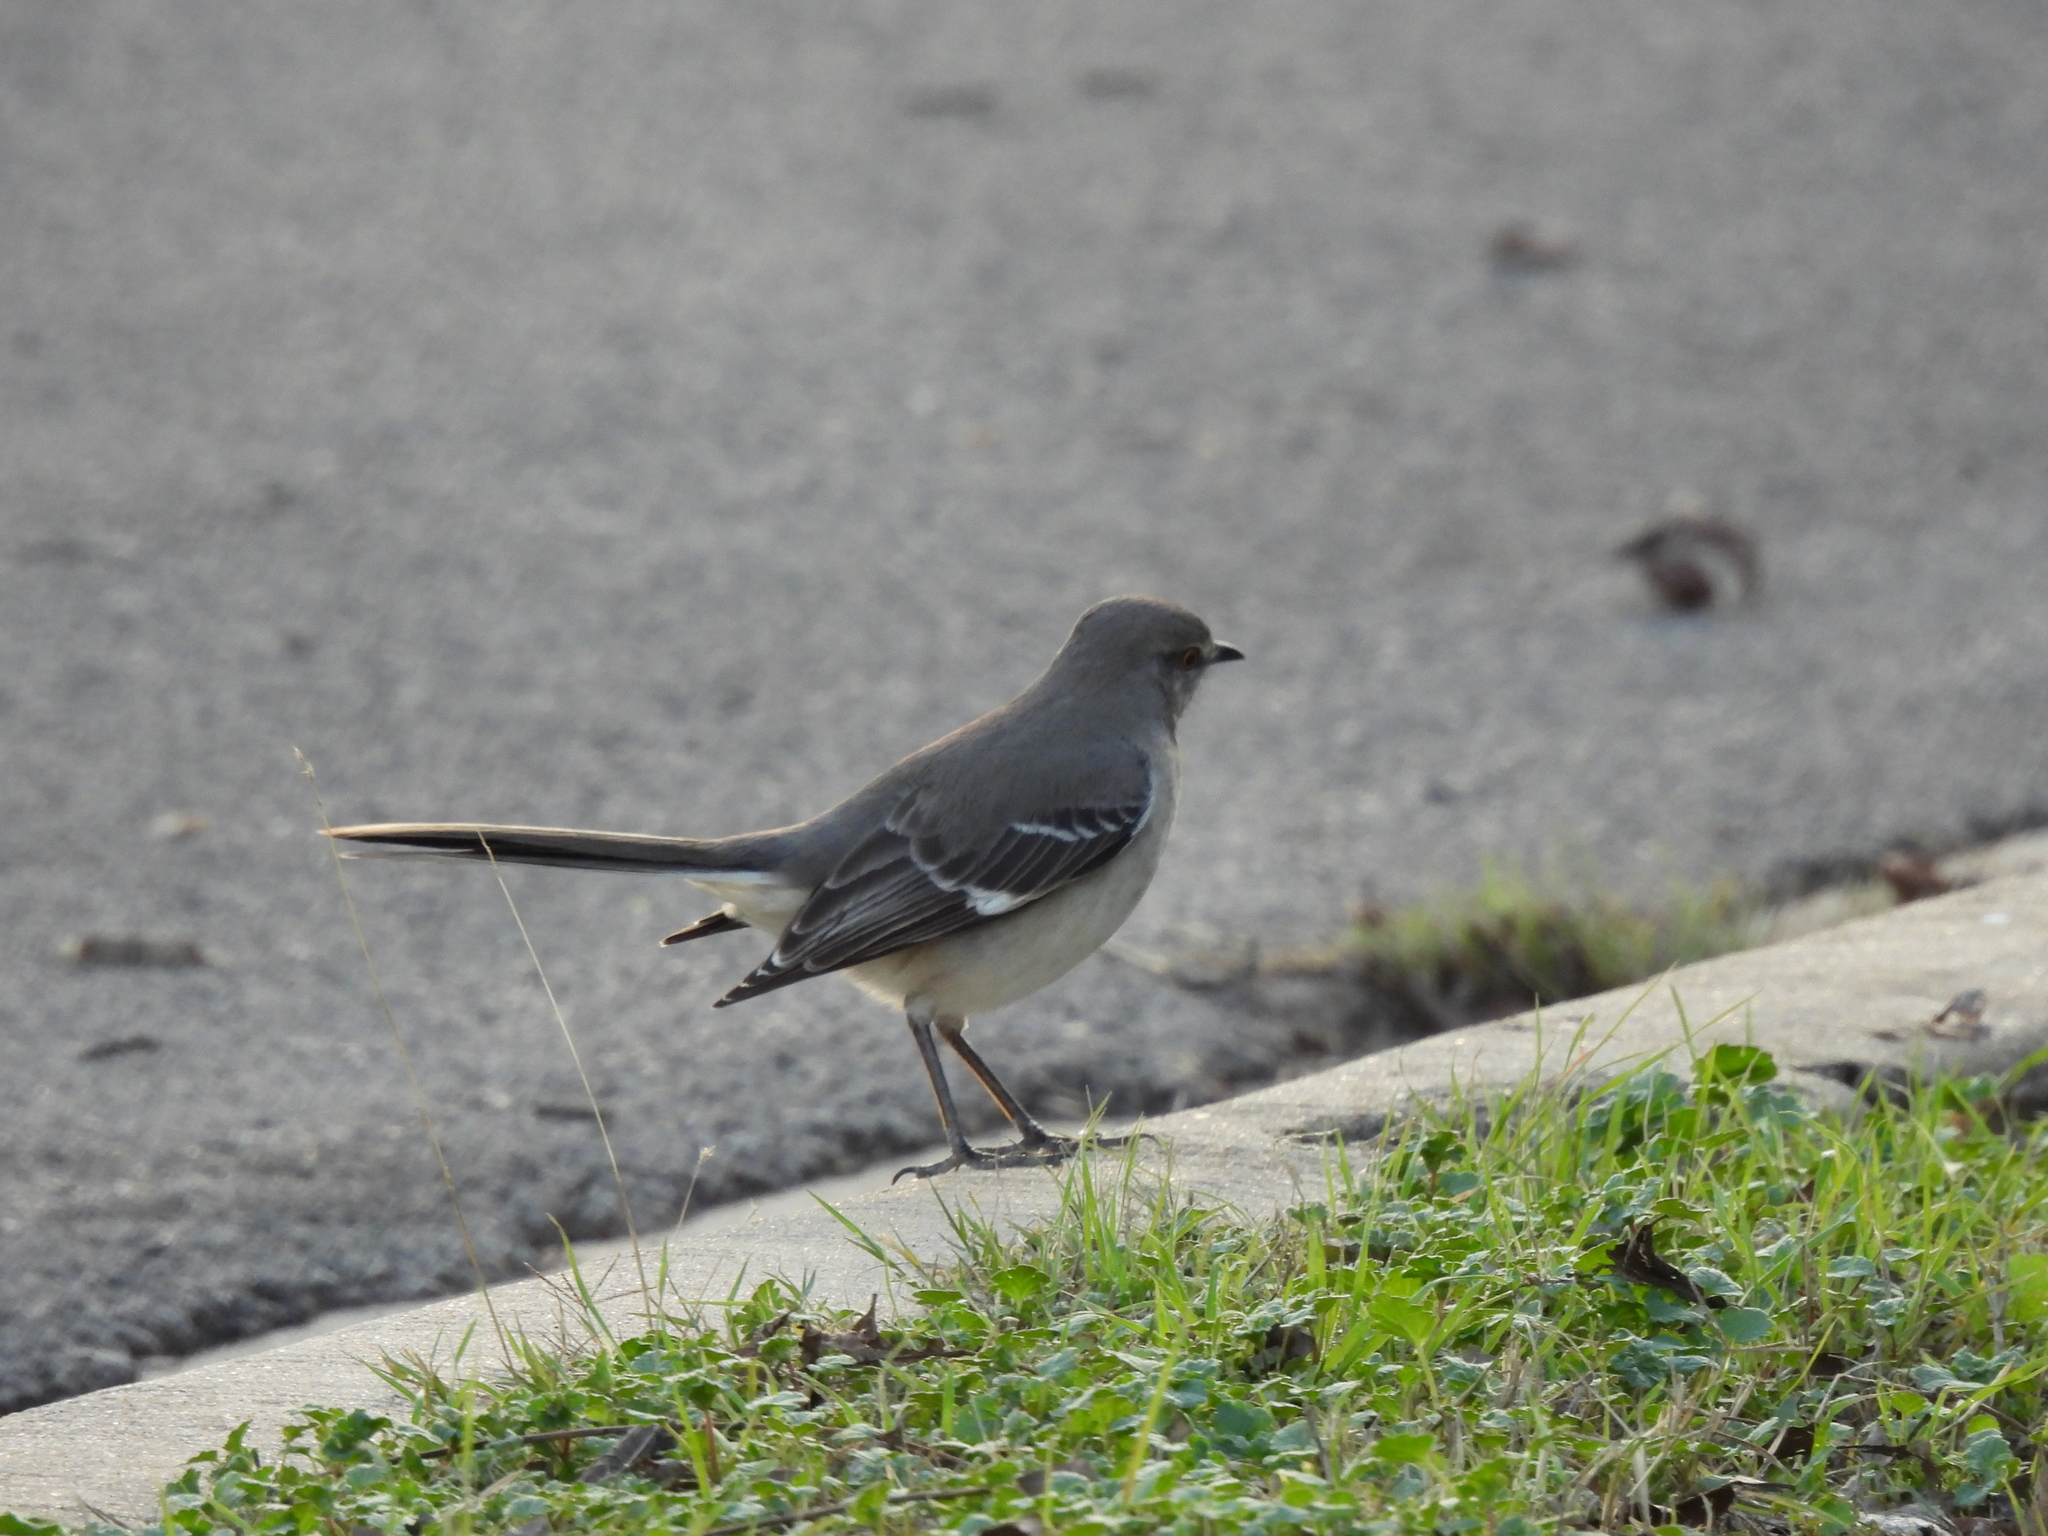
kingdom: Animalia
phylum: Chordata
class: Aves
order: Passeriformes
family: Mimidae
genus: Mimus
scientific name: Mimus polyglottos
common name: Northern mockingbird
